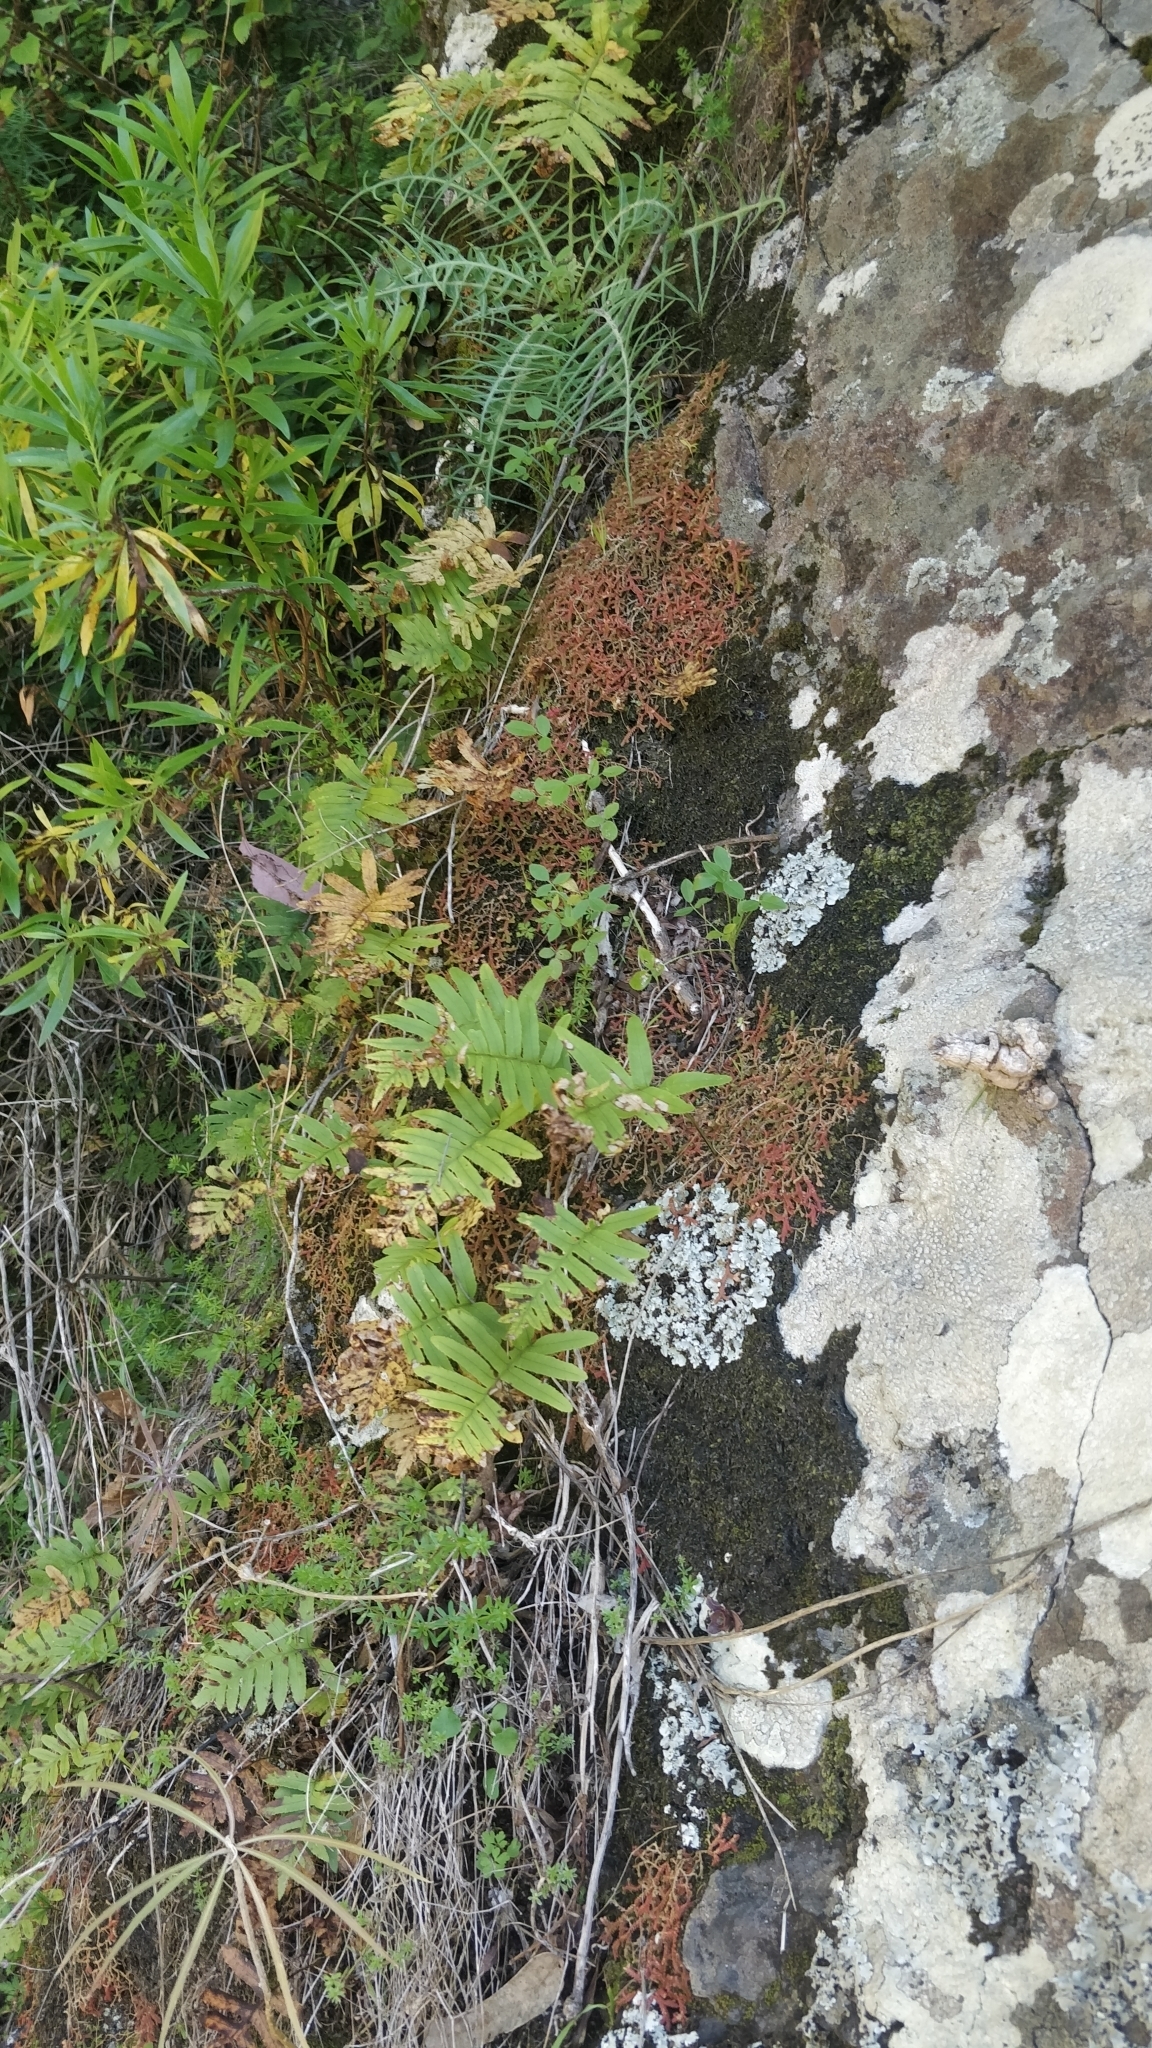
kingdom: Plantae
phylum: Tracheophyta
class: Polypodiopsida
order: Polypodiales
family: Polypodiaceae
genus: Polypodium
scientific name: Polypodium macaronesicum
